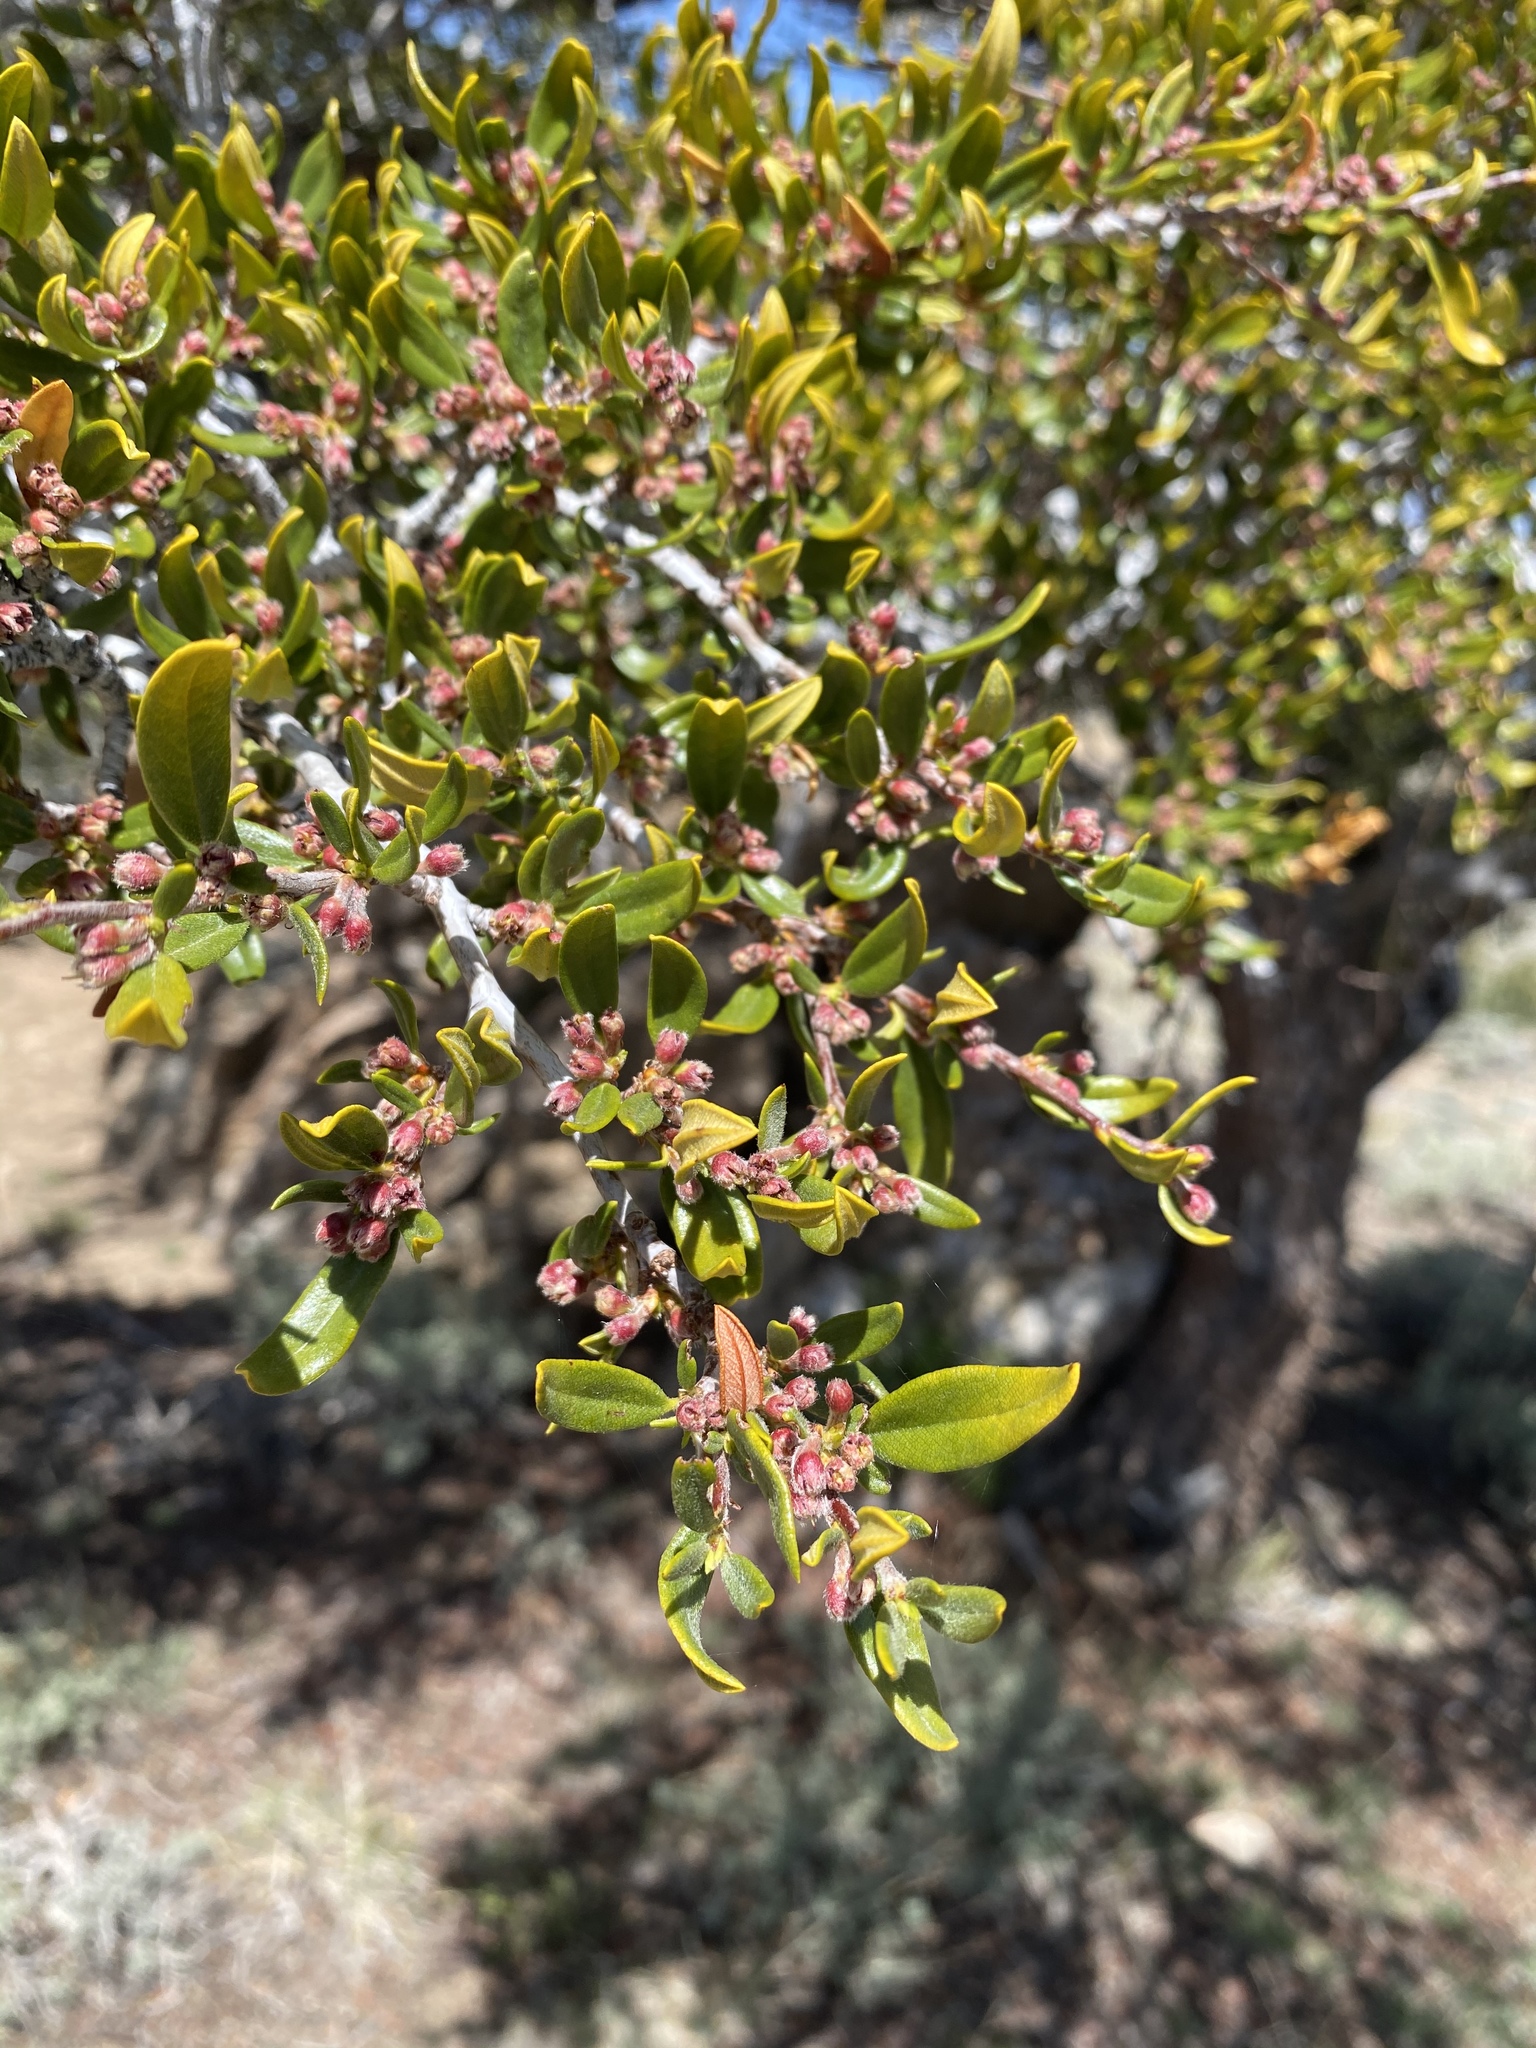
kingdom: Plantae
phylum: Tracheophyta
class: Magnoliopsida
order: Rosales
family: Rosaceae
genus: Cercocarpus
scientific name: Cercocarpus ledifolius
